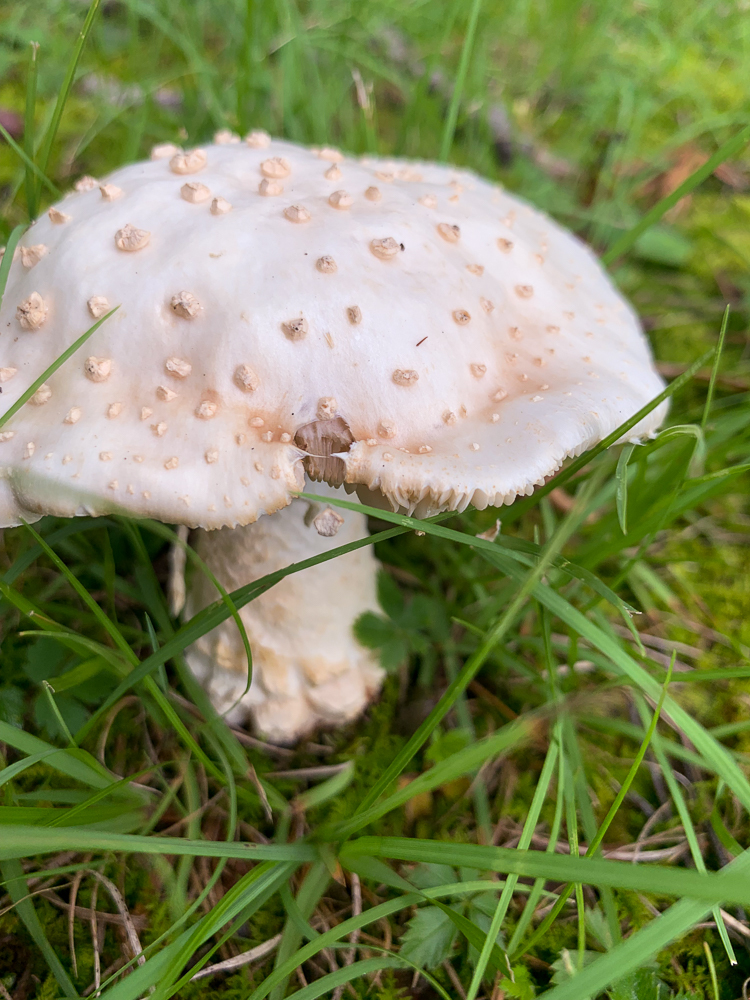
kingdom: Fungi
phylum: Basidiomycota
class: Agaricomycetes
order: Agaricales
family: Amanitaceae
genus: Amanita
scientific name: Amanita canescens
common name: Golden threads lepidella
